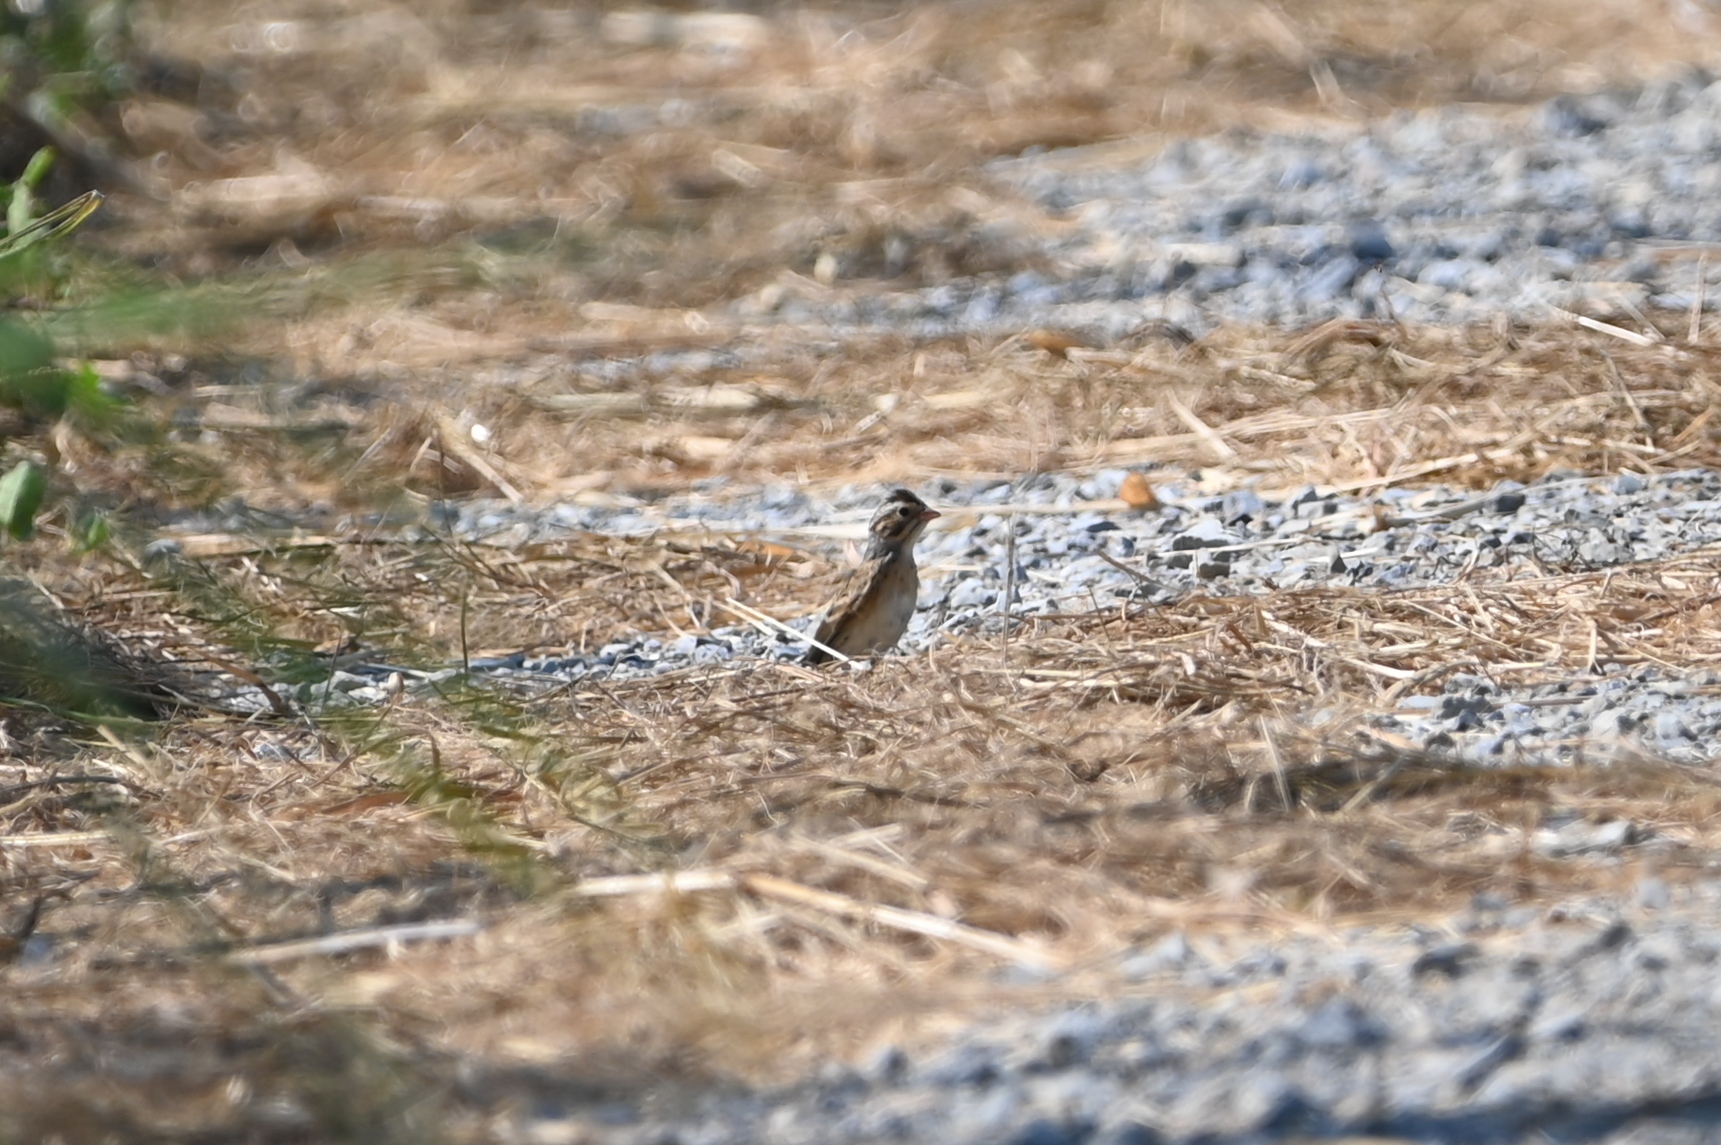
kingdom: Animalia
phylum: Chordata
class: Aves
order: Passeriformes
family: Passerellidae
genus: Spizella
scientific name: Spizella pallida
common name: Clay-colored sparrow
